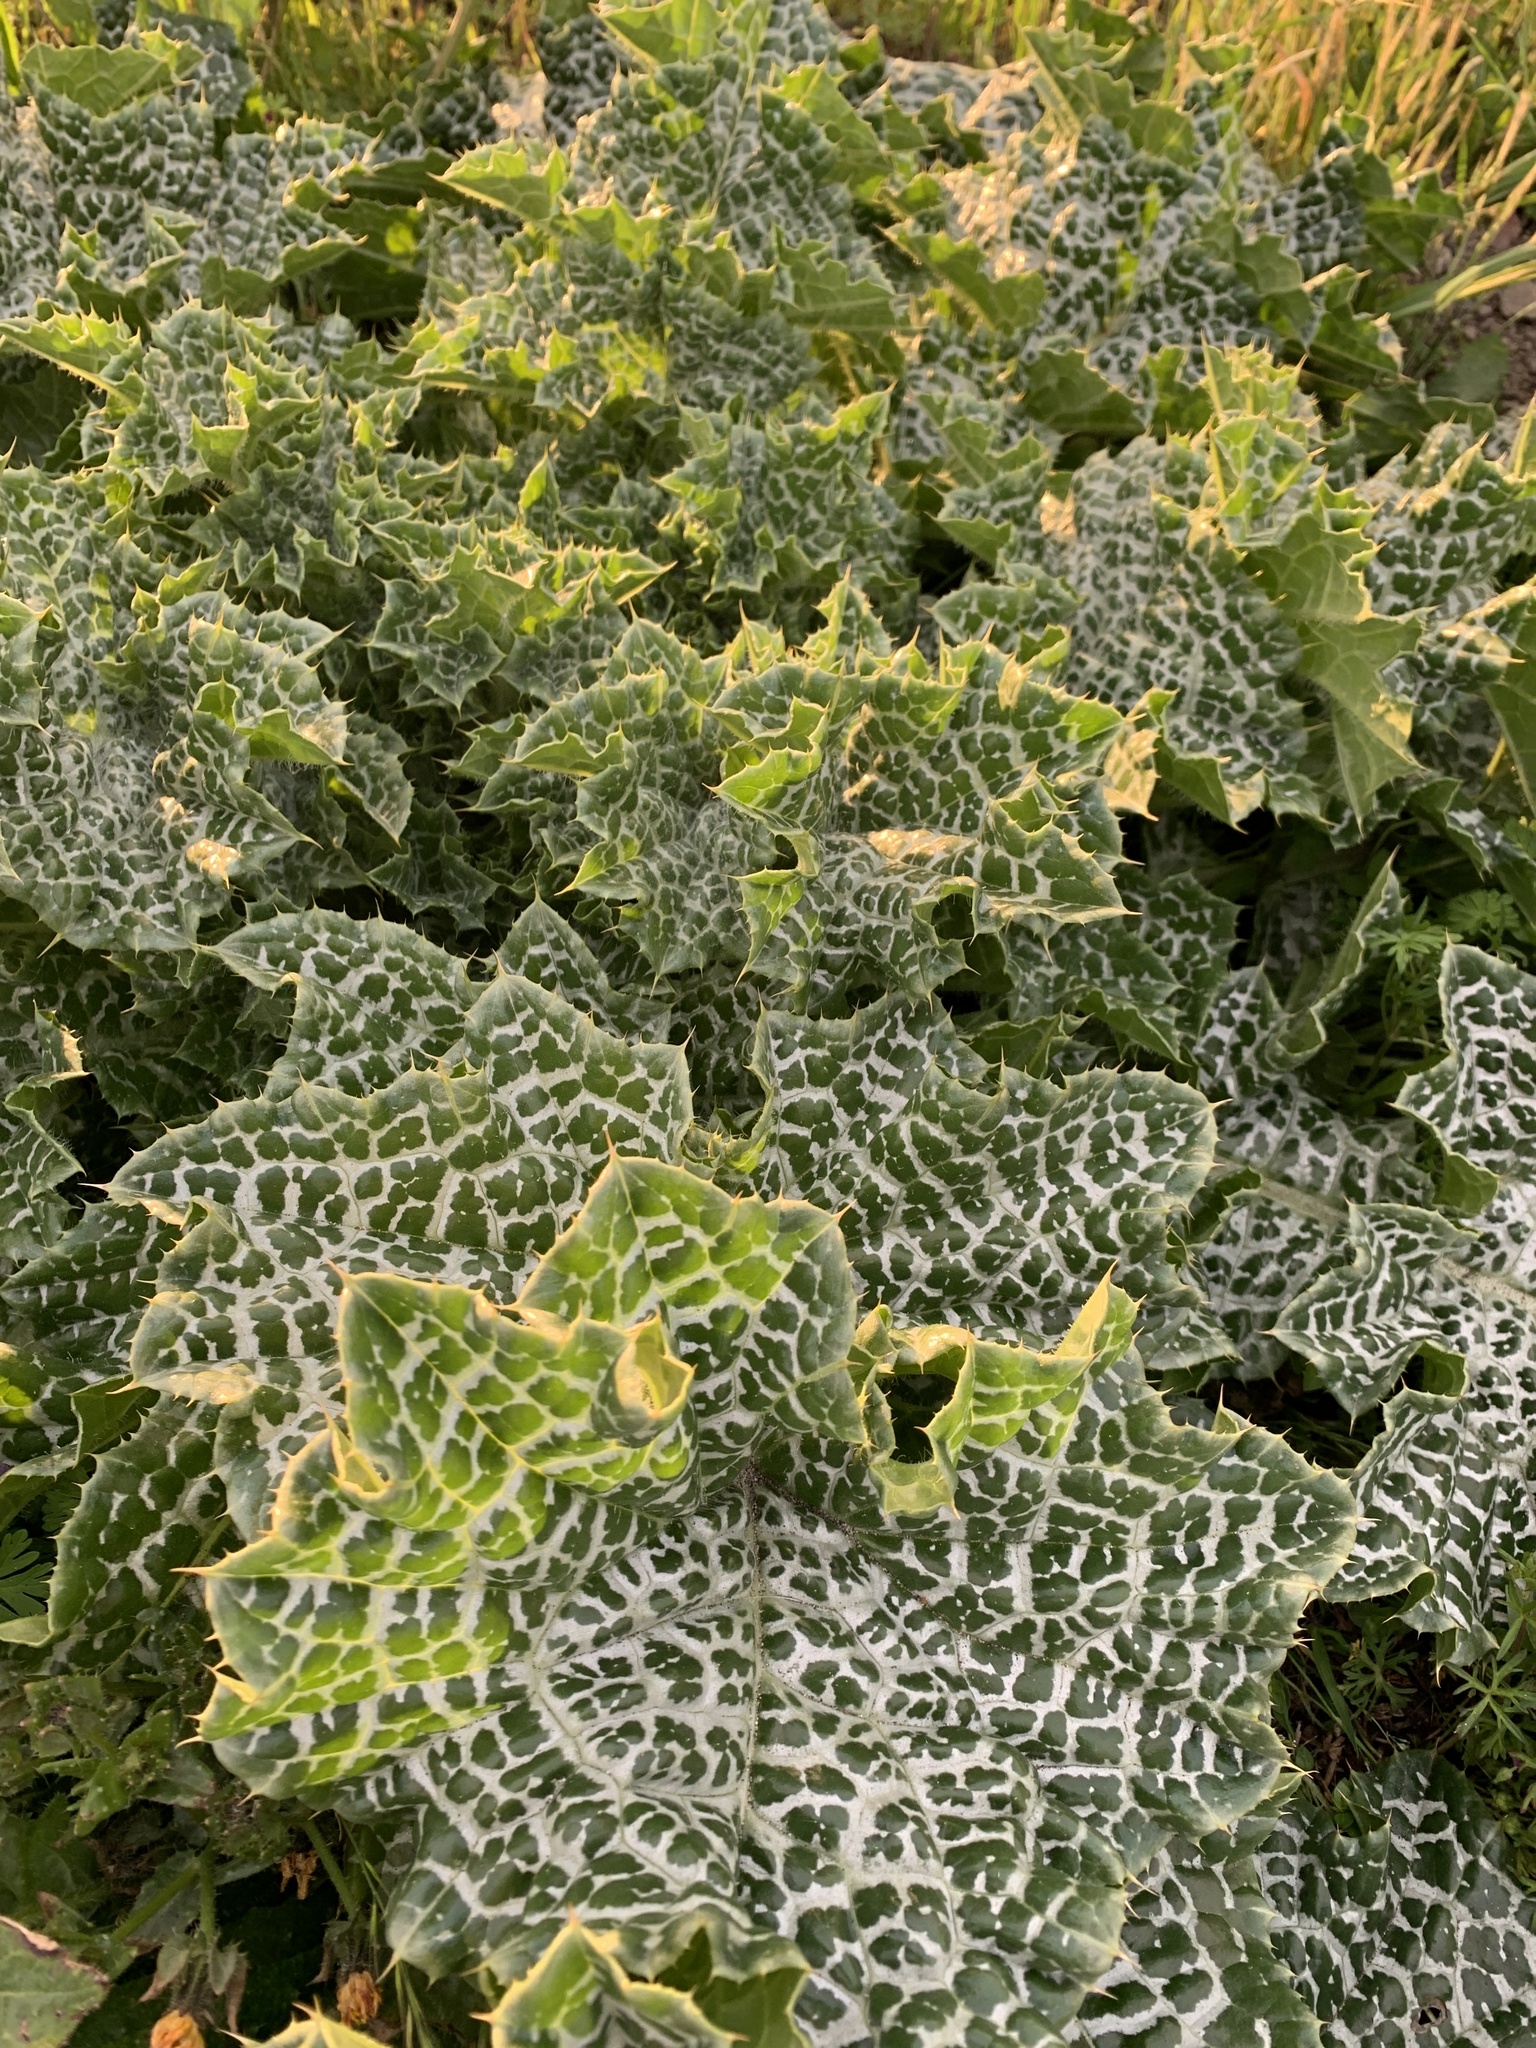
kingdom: Plantae
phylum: Tracheophyta
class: Magnoliopsida
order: Asterales
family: Asteraceae
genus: Silybum
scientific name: Silybum marianum
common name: Milk thistle
